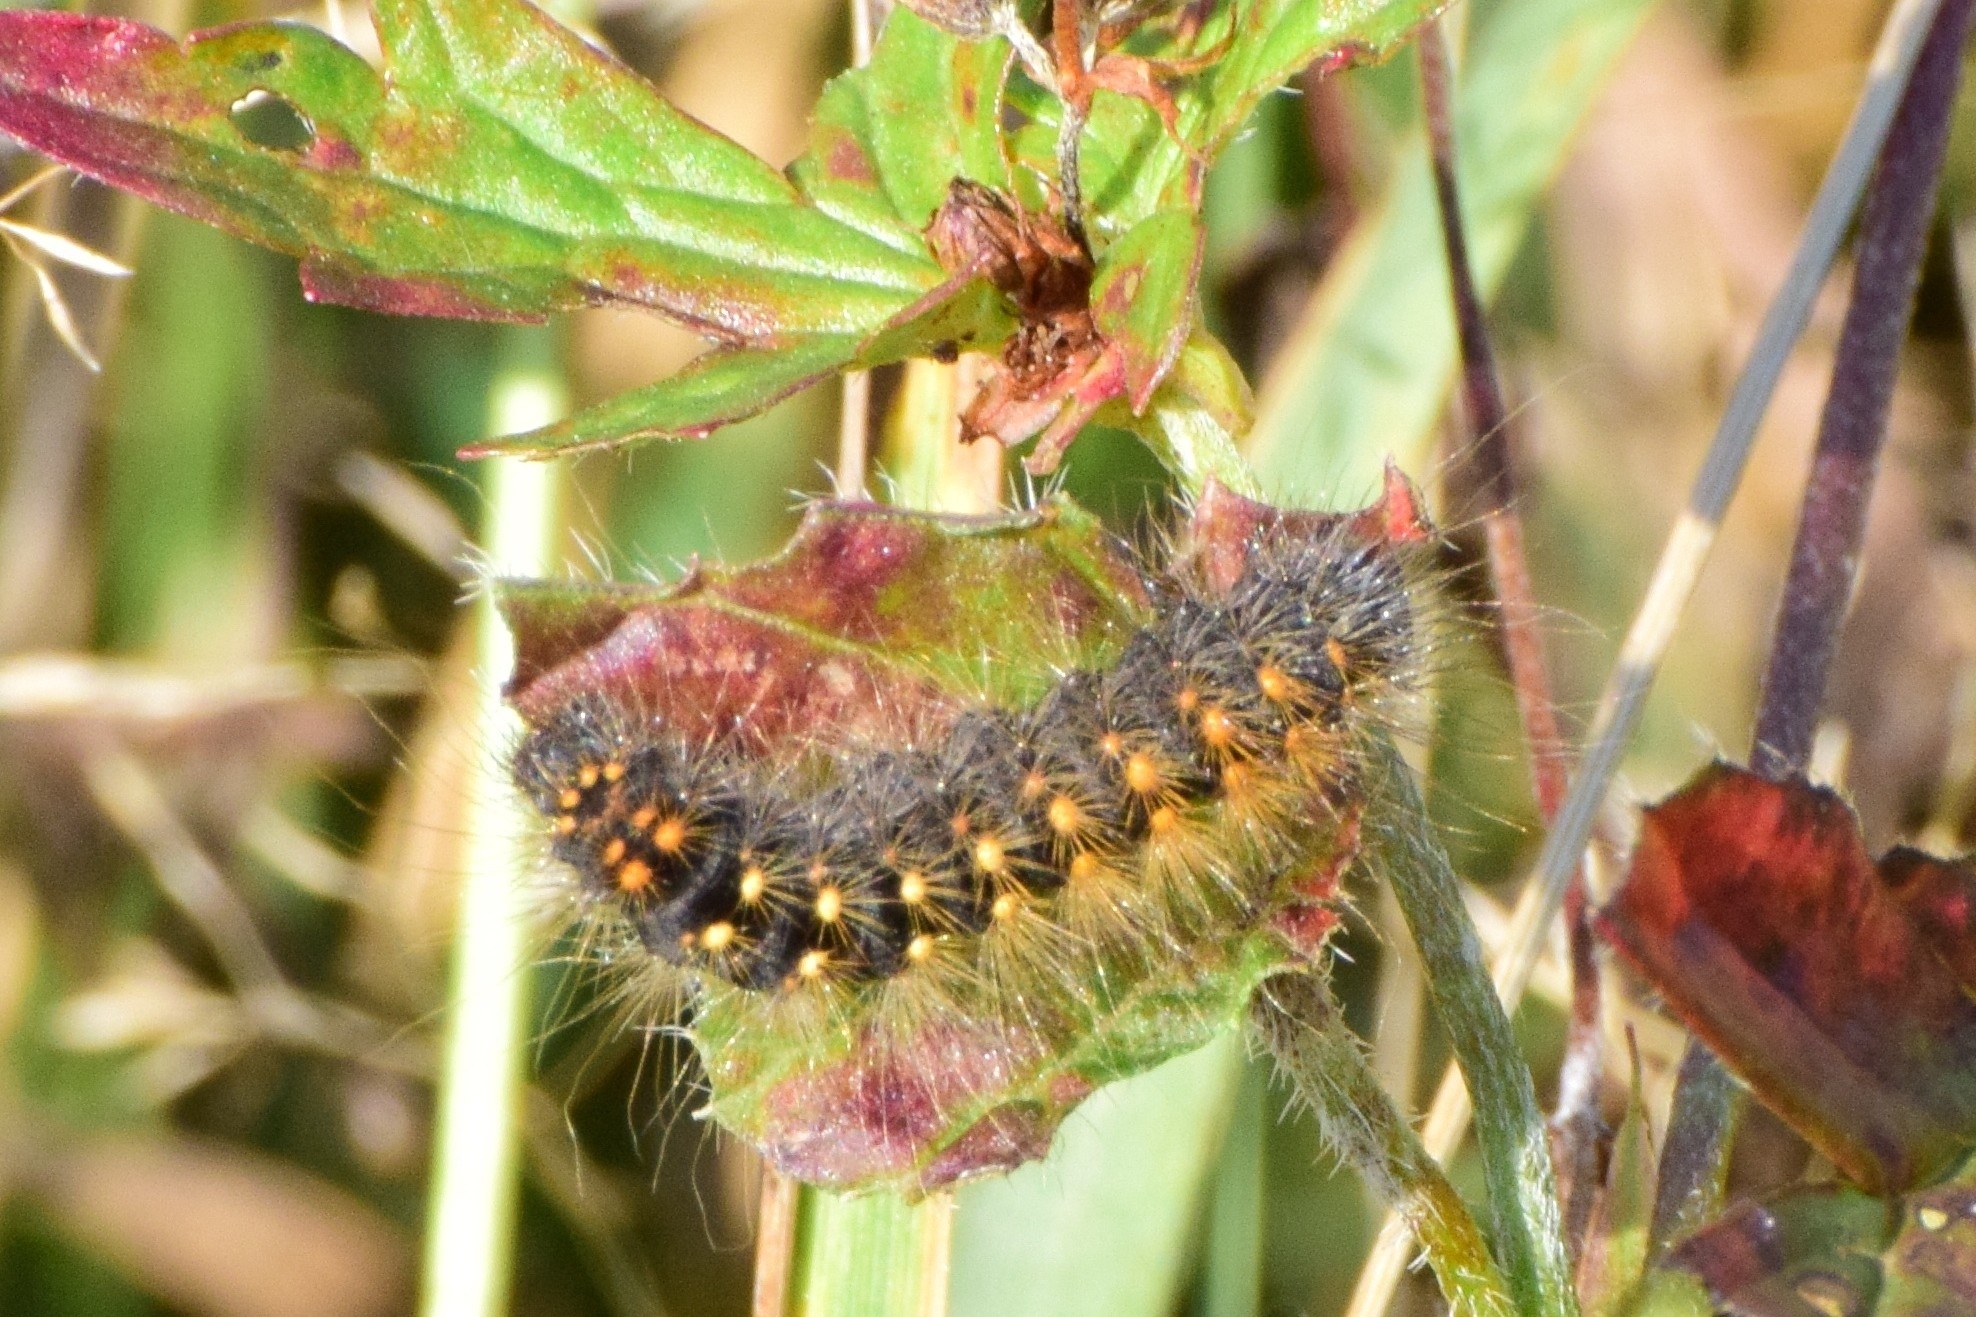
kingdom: Animalia
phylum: Arthropoda
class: Insecta
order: Lepidoptera
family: Noctuidae
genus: Acronicta
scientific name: Acronicta auricoma
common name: Scarce dagger
